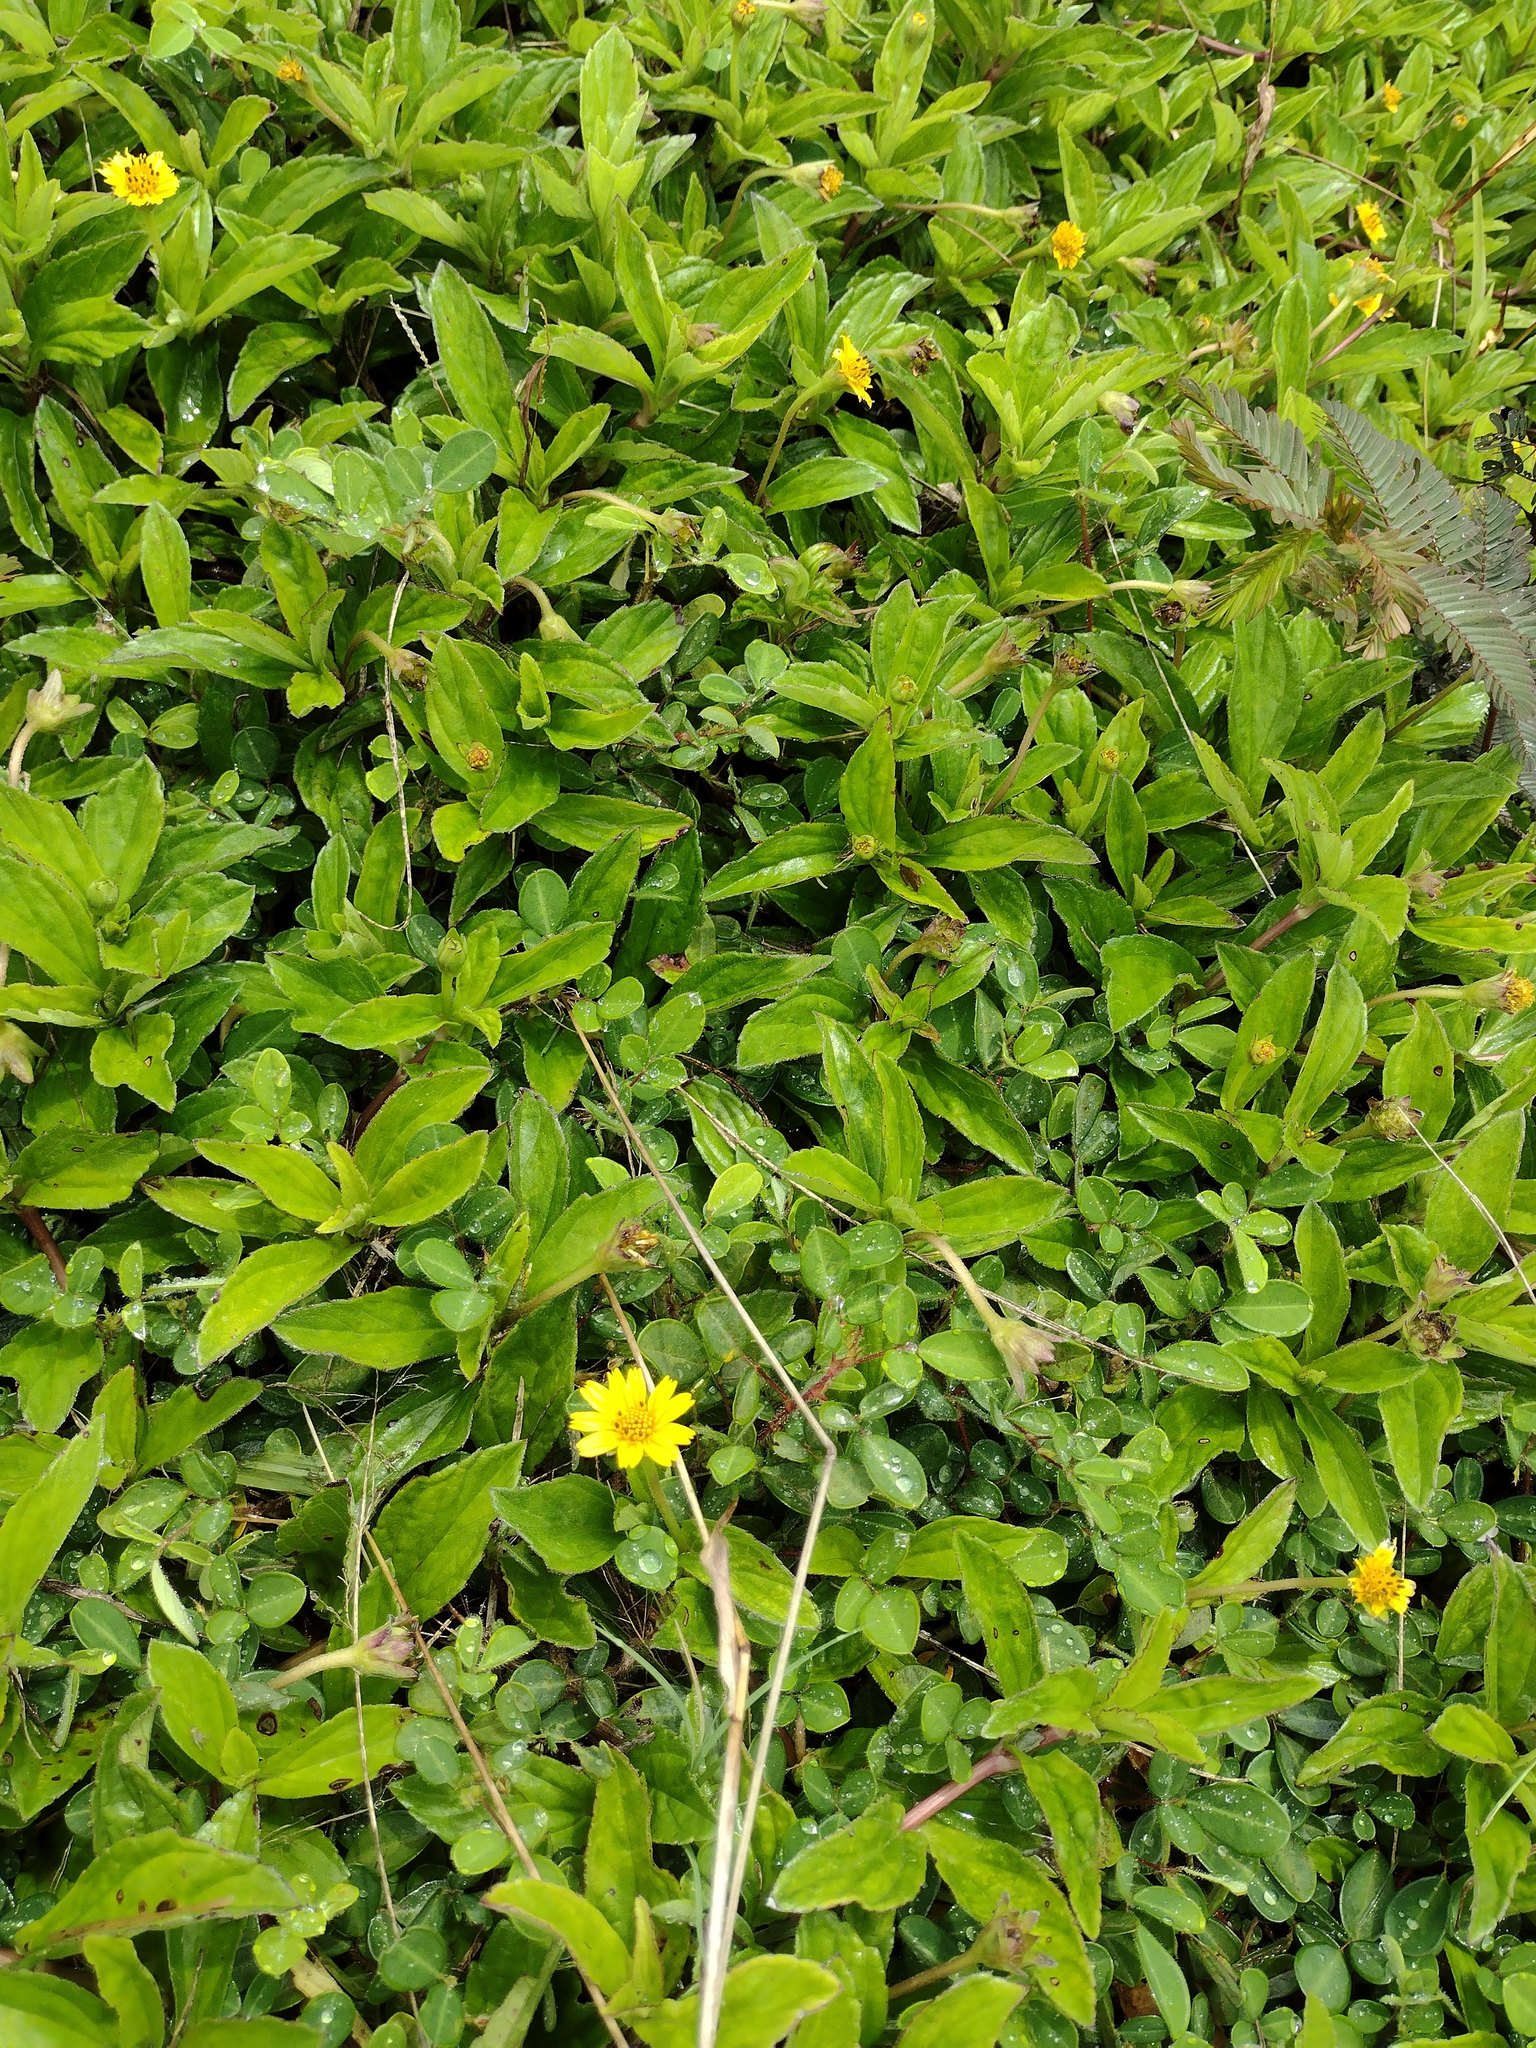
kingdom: Plantae
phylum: Tracheophyta
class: Magnoliopsida
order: Asterales
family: Asteraceae
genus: Sphagneticola
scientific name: Sphagneticola trilobata
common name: Bay biscayne creeping-oxeye
